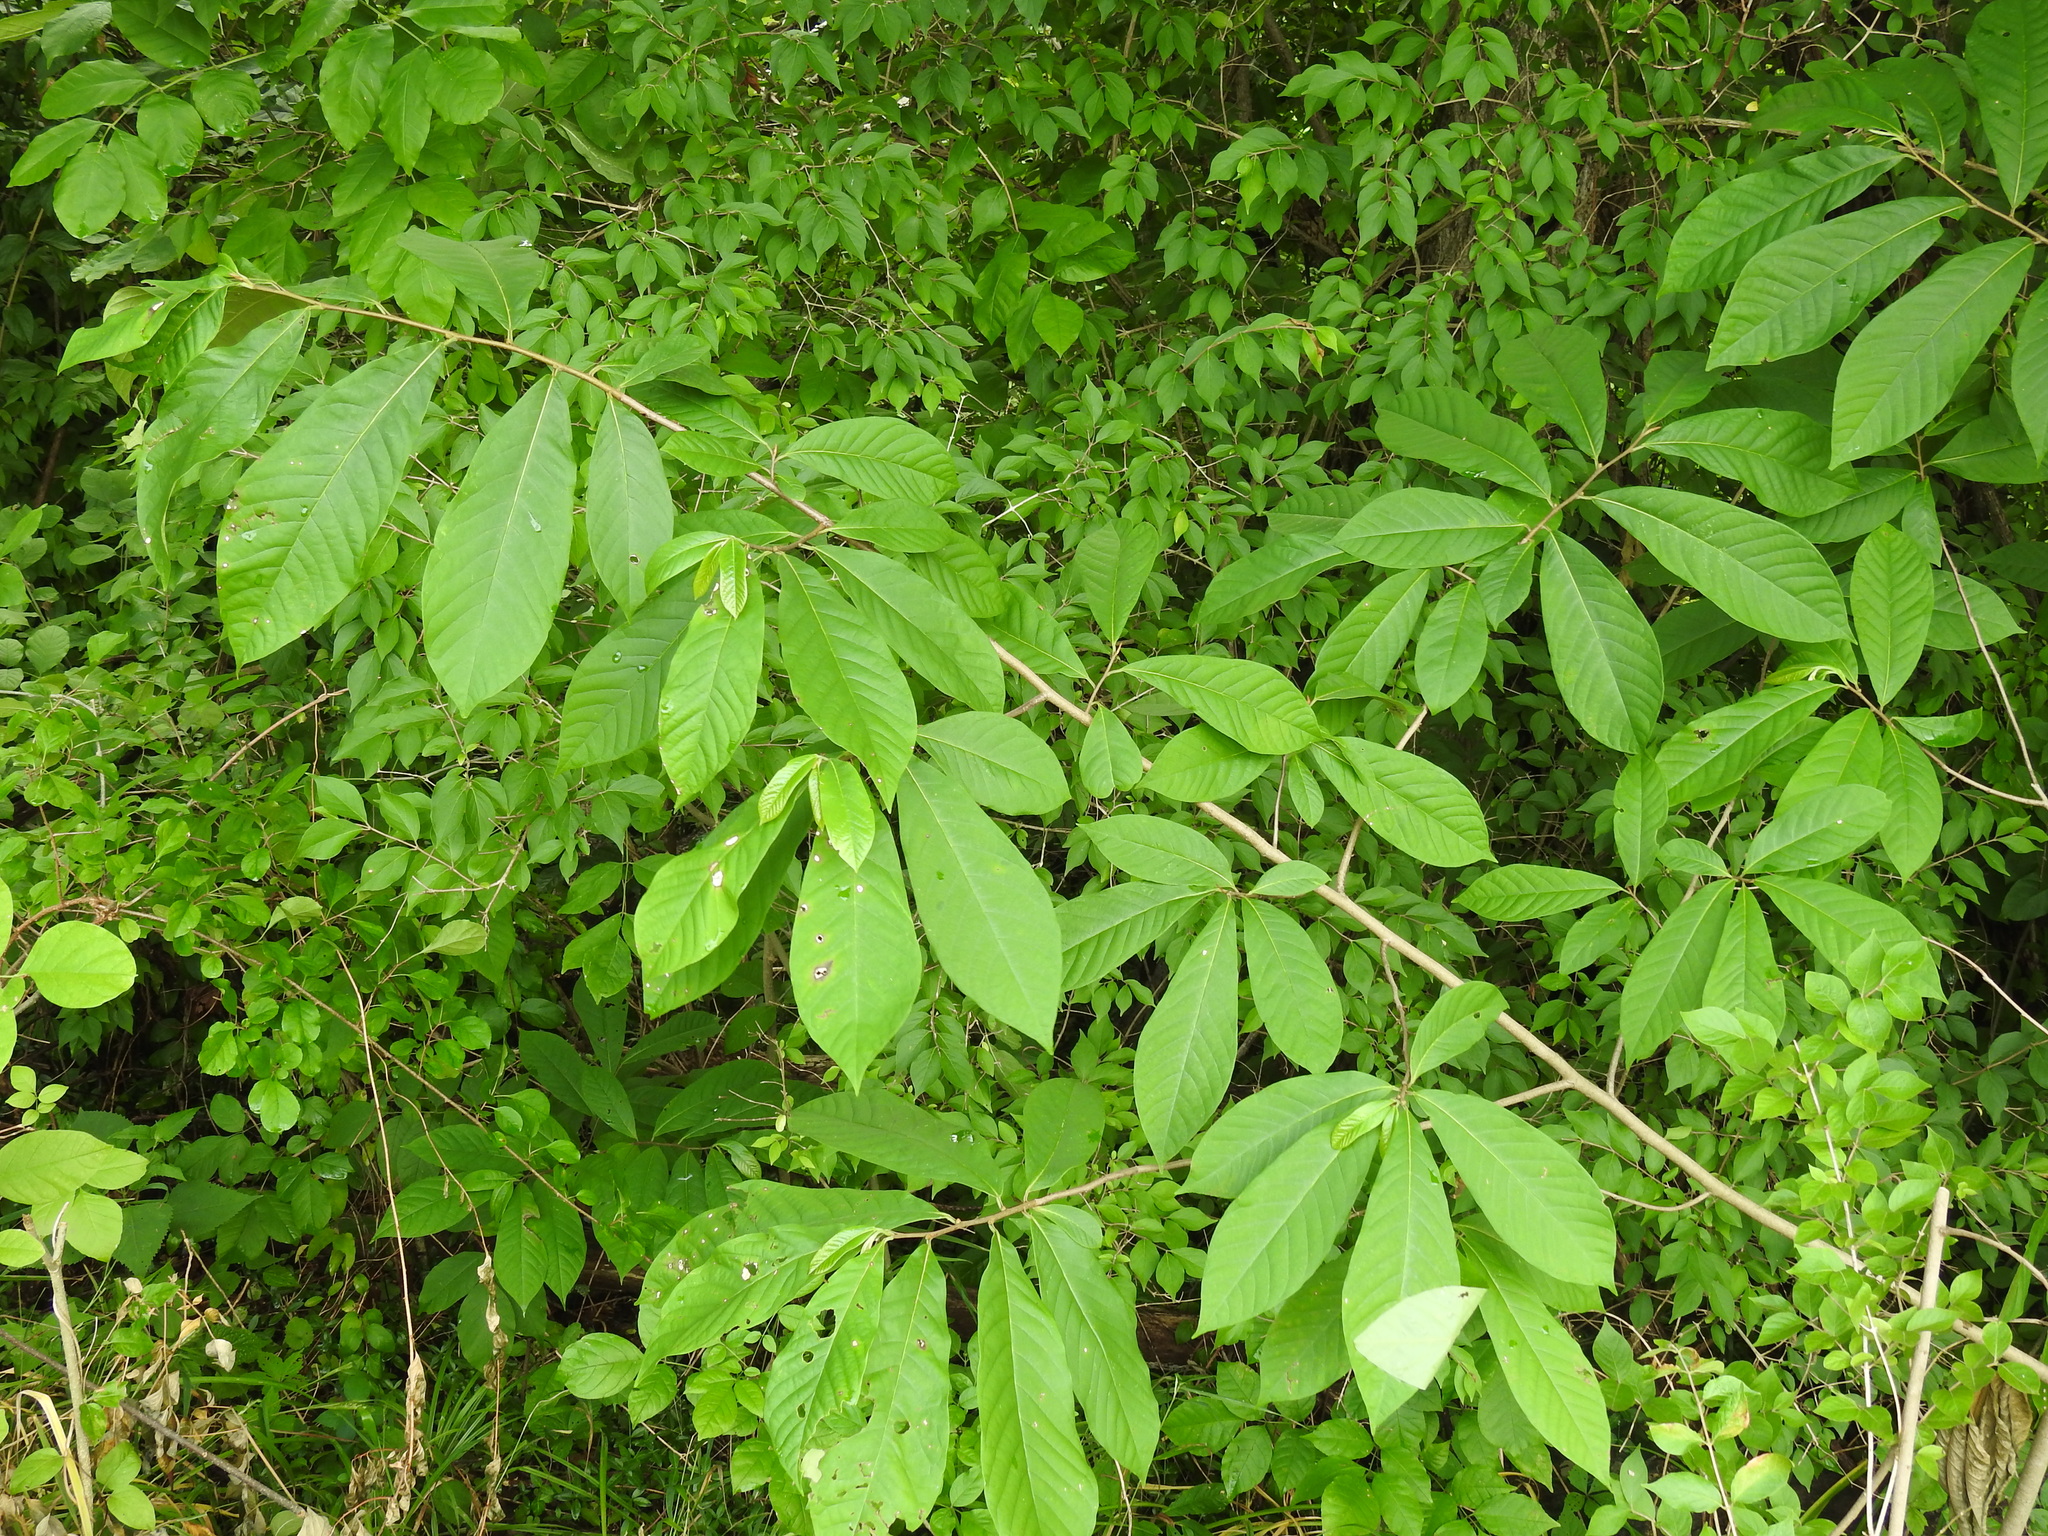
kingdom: Plantae
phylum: Tracheophyta
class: Magnoliopsida
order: Magnoliales
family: Annonaceae
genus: Asimina
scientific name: Asimina triloba
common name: Dog-banana
